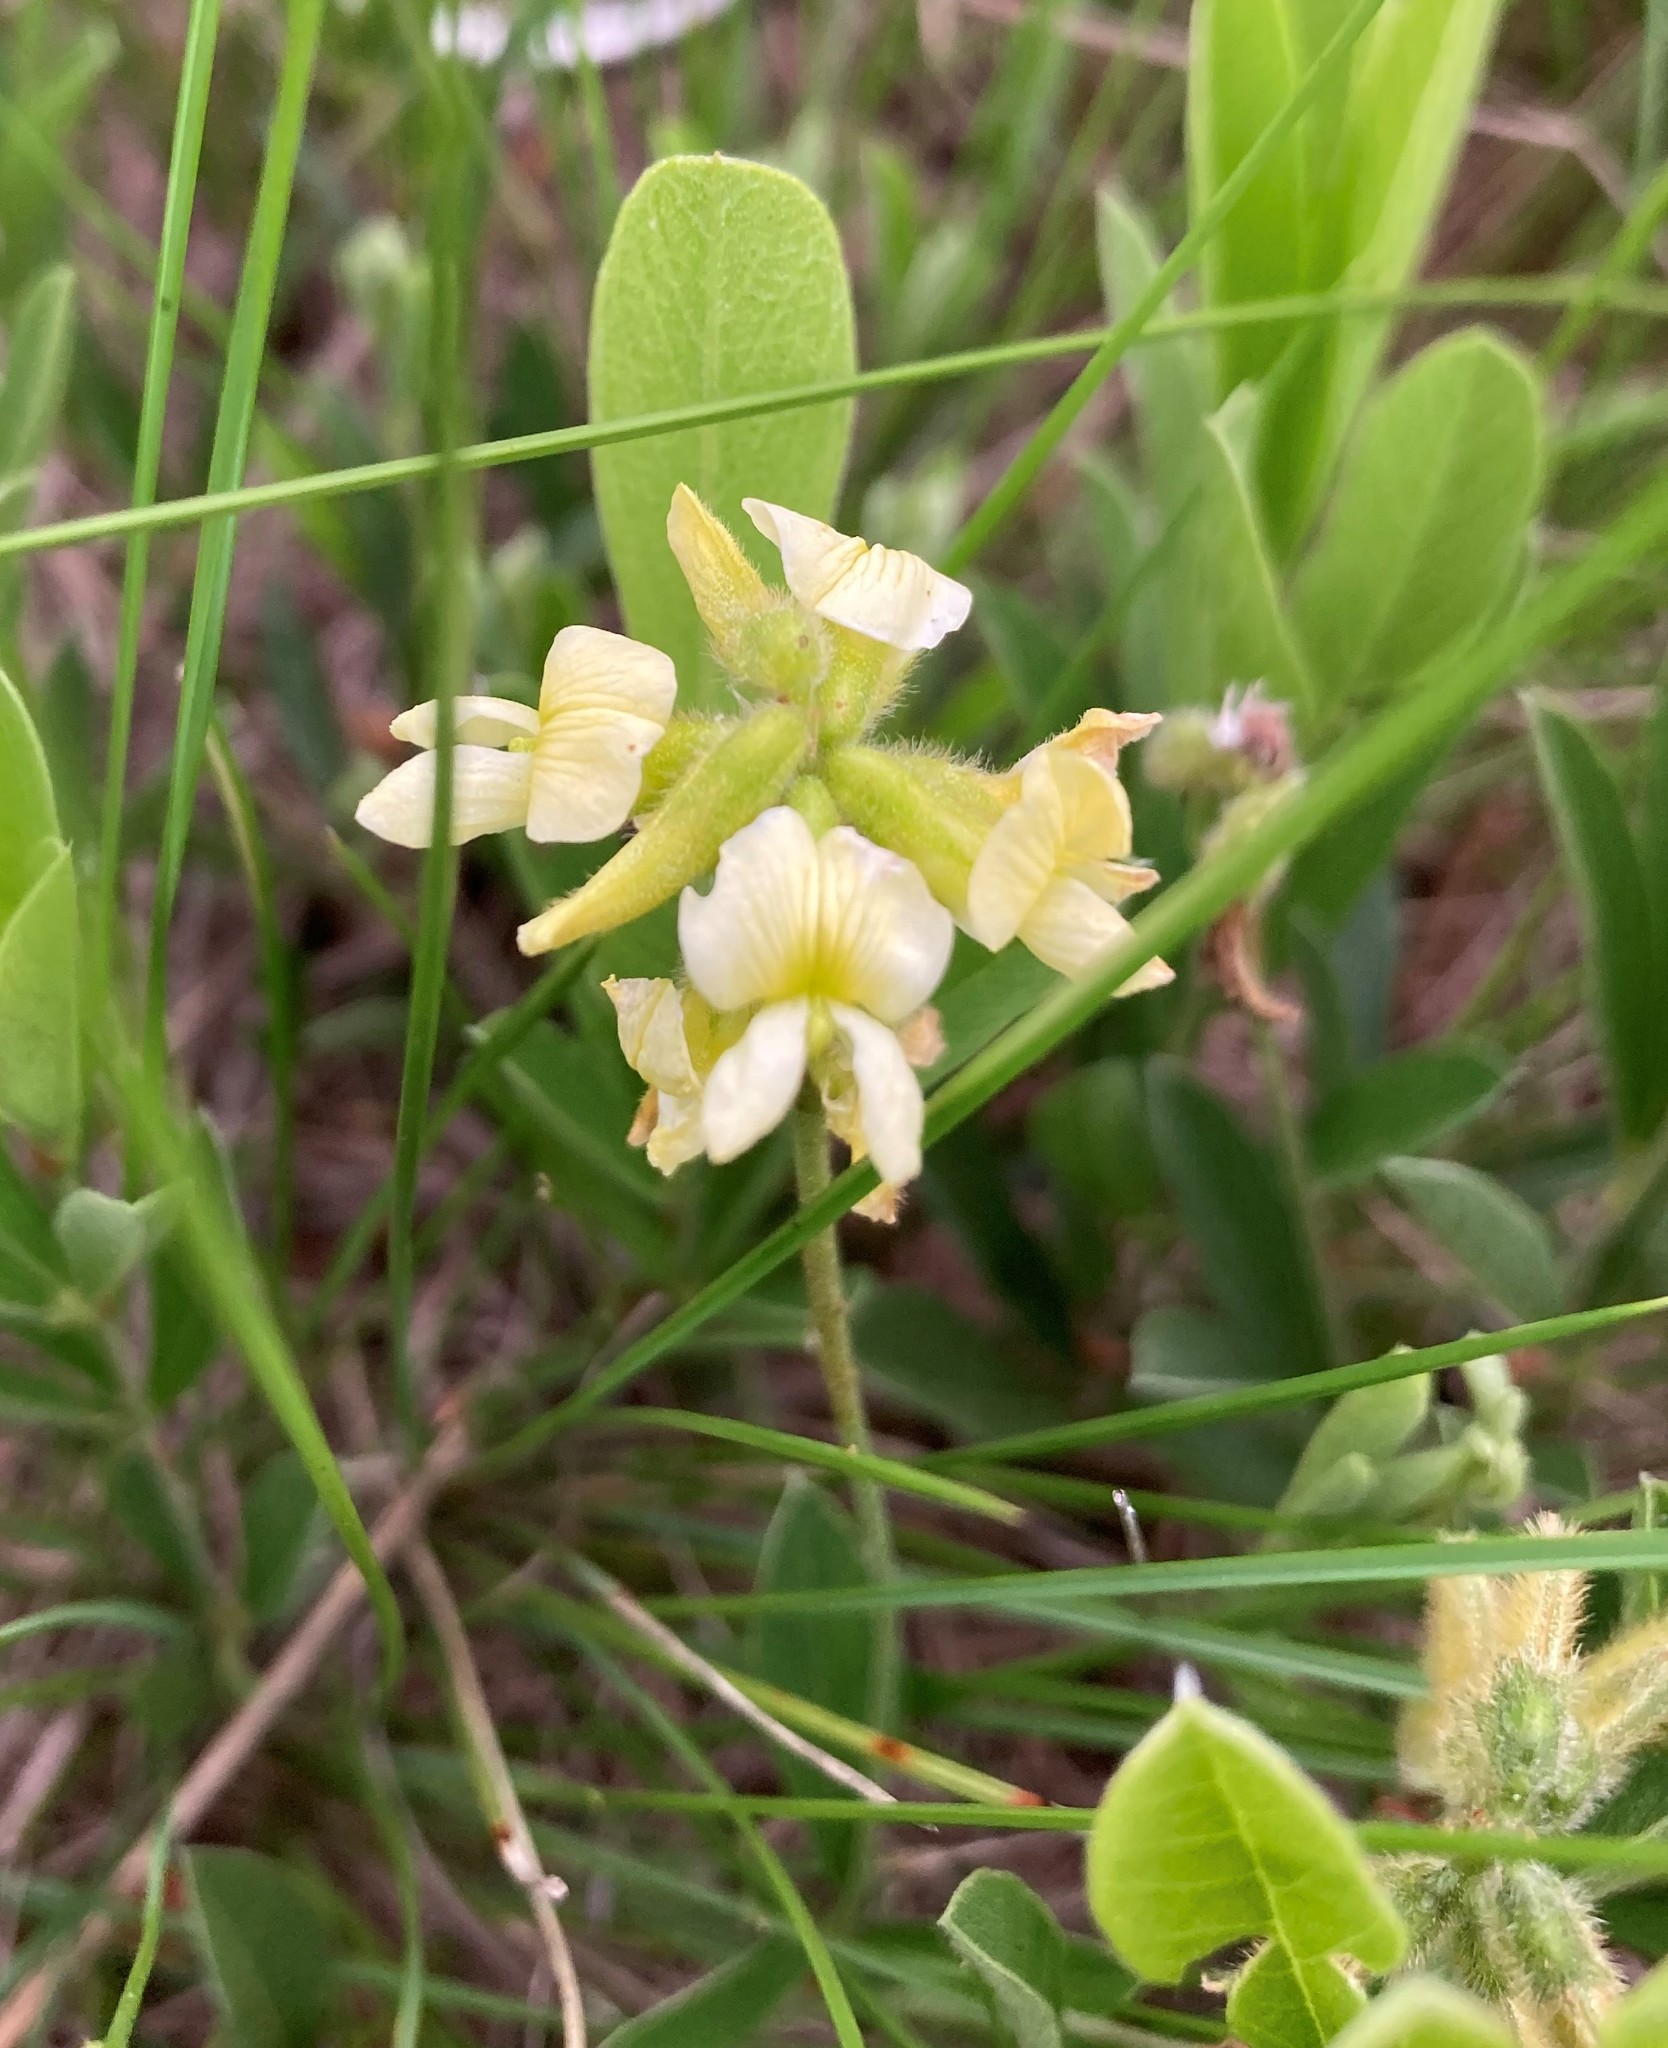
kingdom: Plantae
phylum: Tracheophyta
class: Magnoliopsida
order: Fabales
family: Fabaceae
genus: Eriosema
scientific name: Eriosema kraussianum
